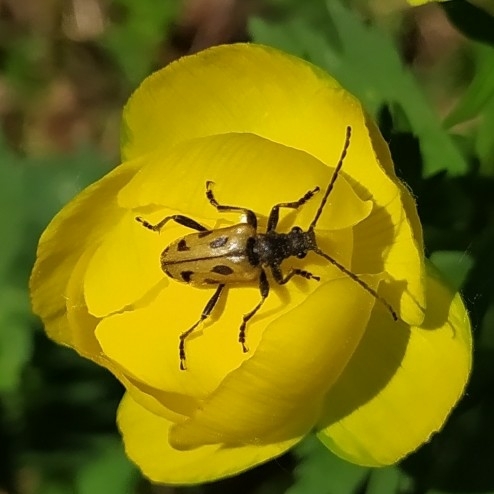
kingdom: Animalia
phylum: Arthropoda
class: Insecta
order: Coleoptera
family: Cerambycidae
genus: Brachyta
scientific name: Brachyta interrogationis
